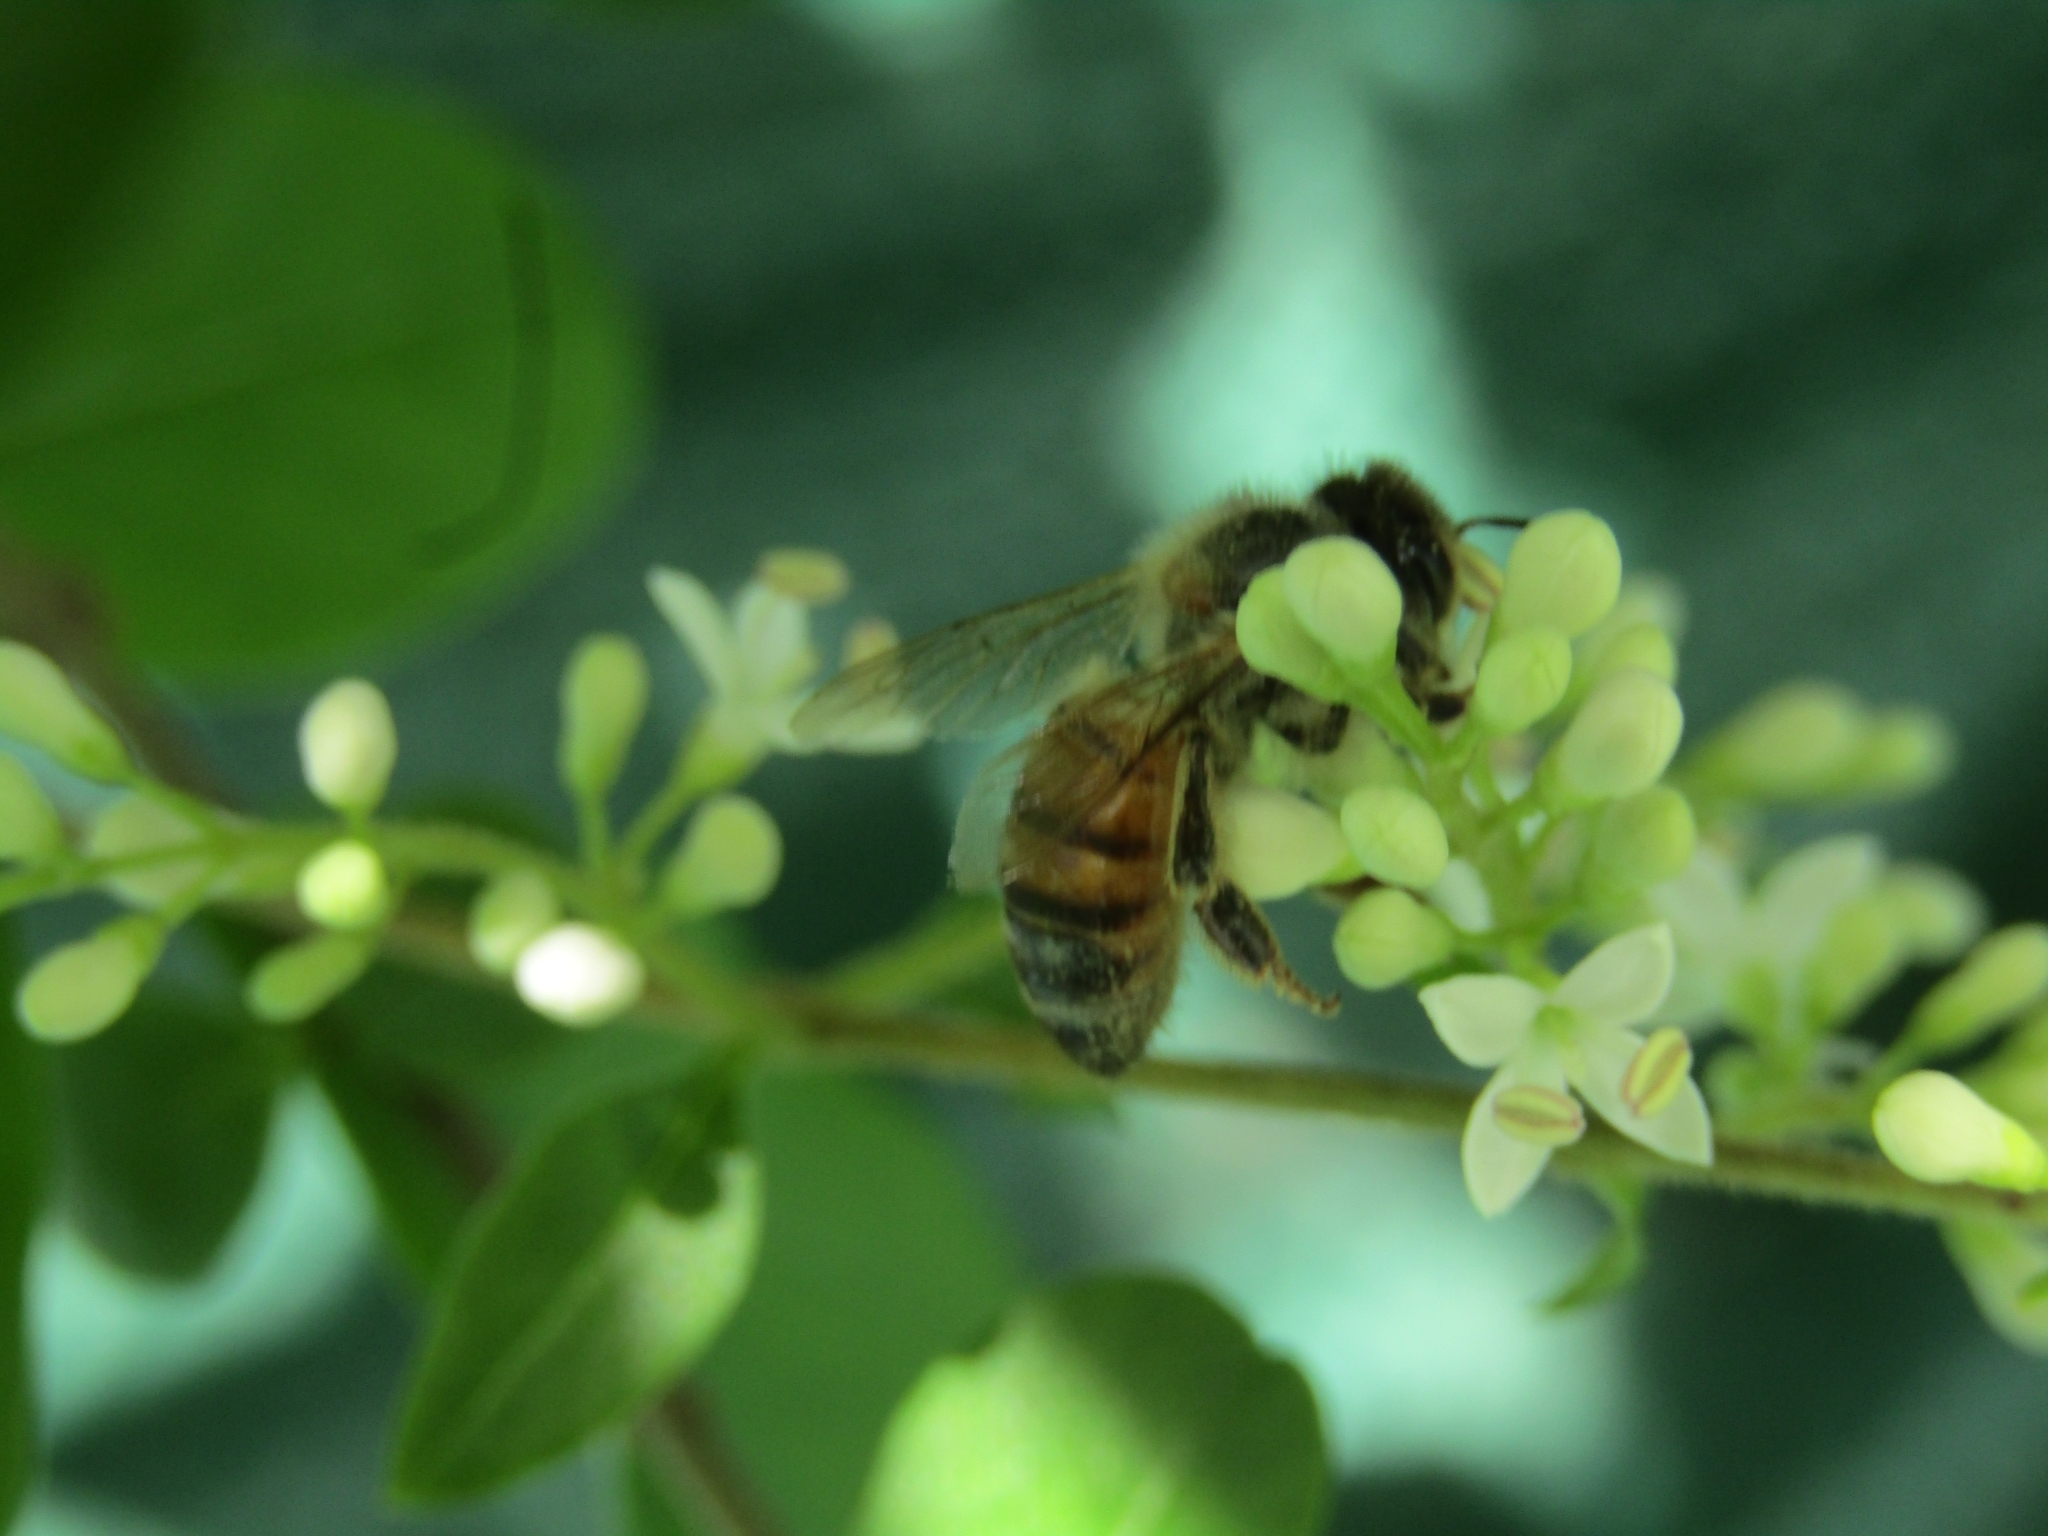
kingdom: Animalia
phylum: Arthropoda
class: Insecta
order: Hymenoptera
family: Apidae
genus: Apis
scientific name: Apis mellifera
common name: Honey bee
